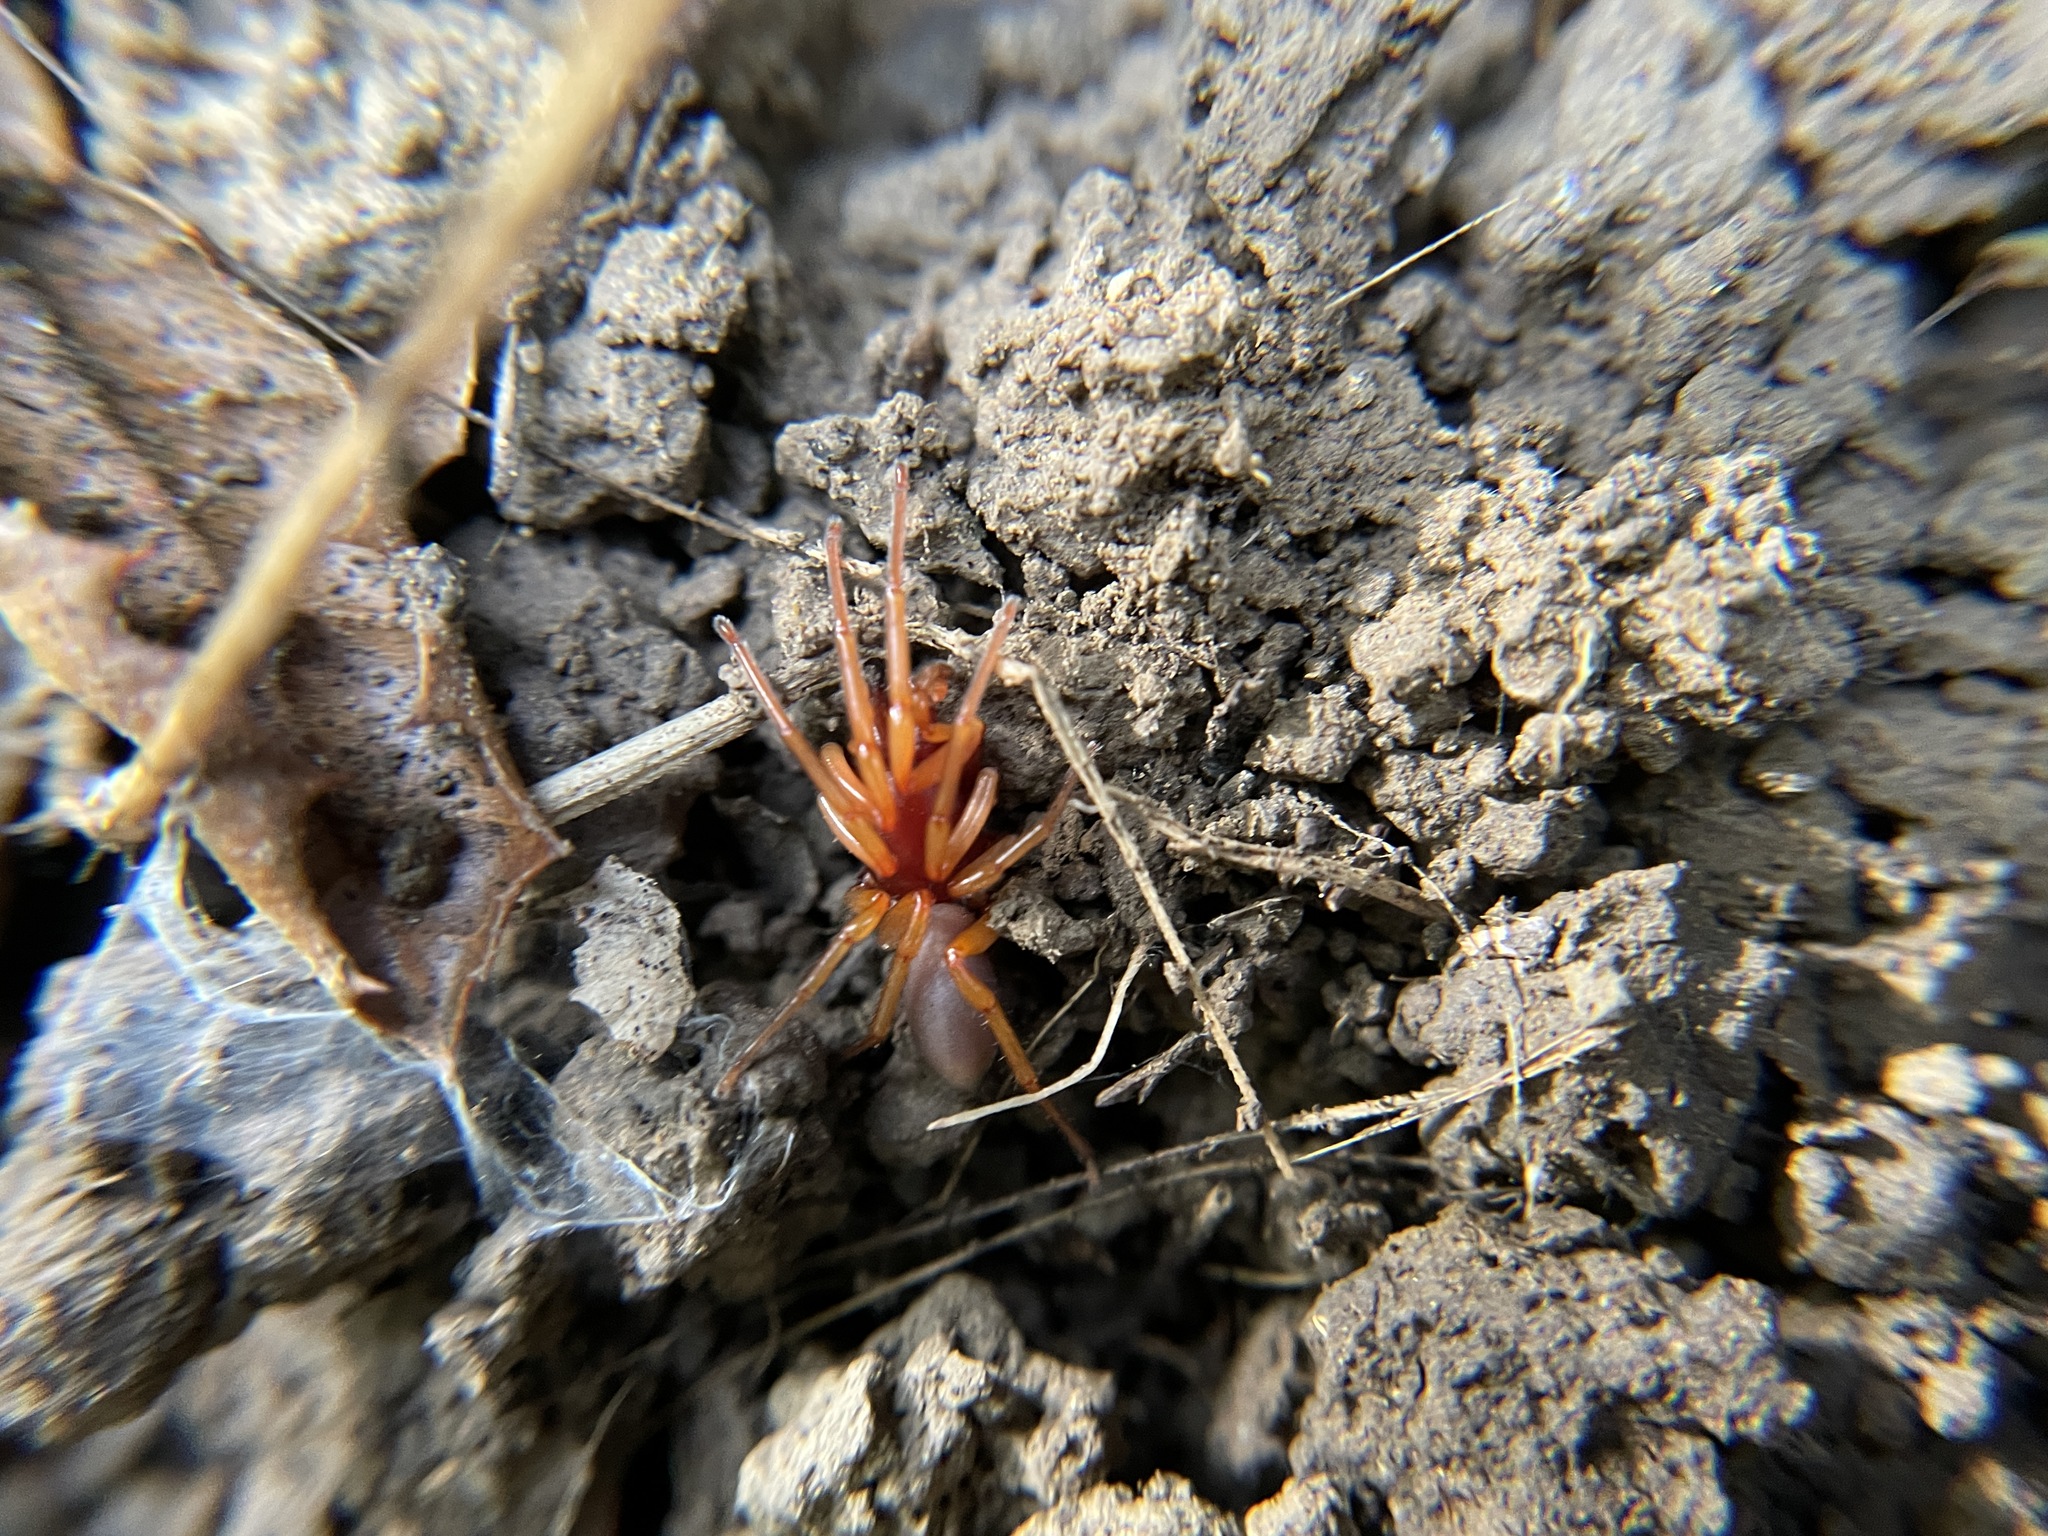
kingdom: Animalia
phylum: Arthropoda
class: Arachnida
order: Araneae
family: Dysderidae
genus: Dysdera
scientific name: Dysdera crocata
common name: Woodlouse spider
